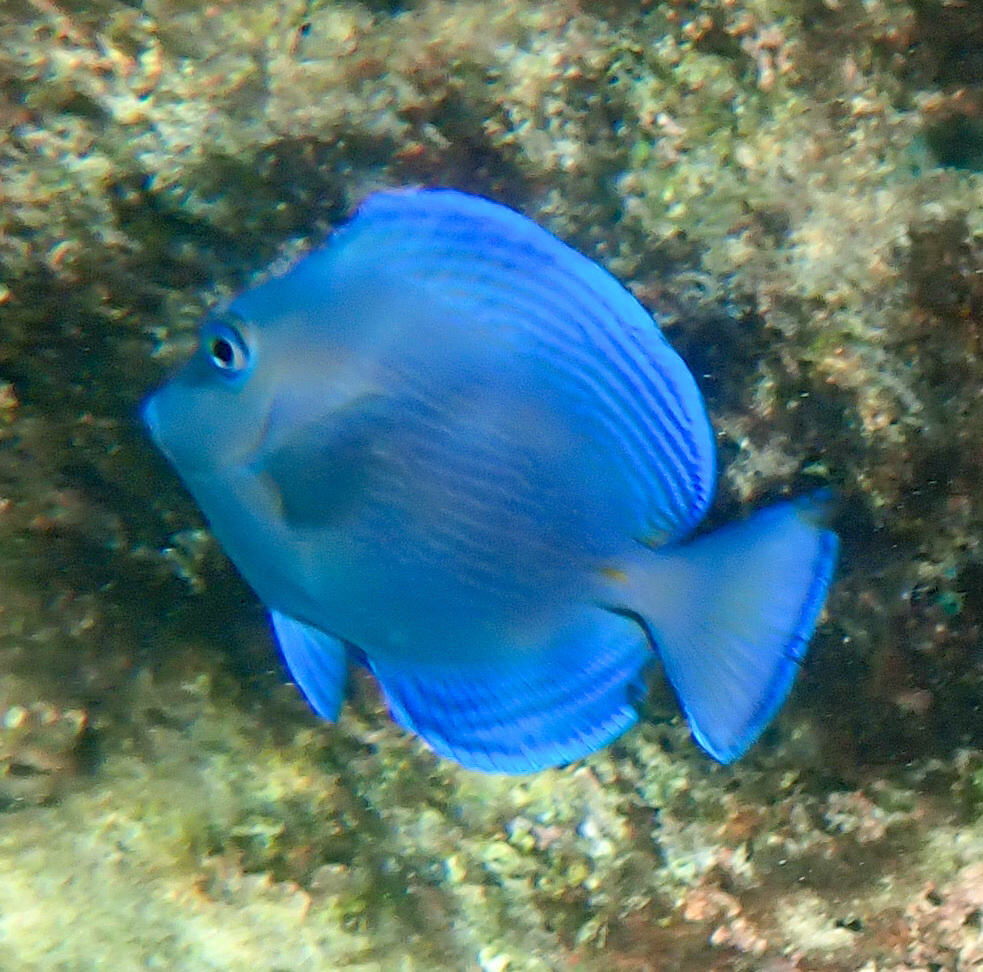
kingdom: Animalia
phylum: Chordata
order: Perciformes
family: Acanthuridae
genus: Acanthurus
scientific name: Acanthurus coeruleus
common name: Blue tang
